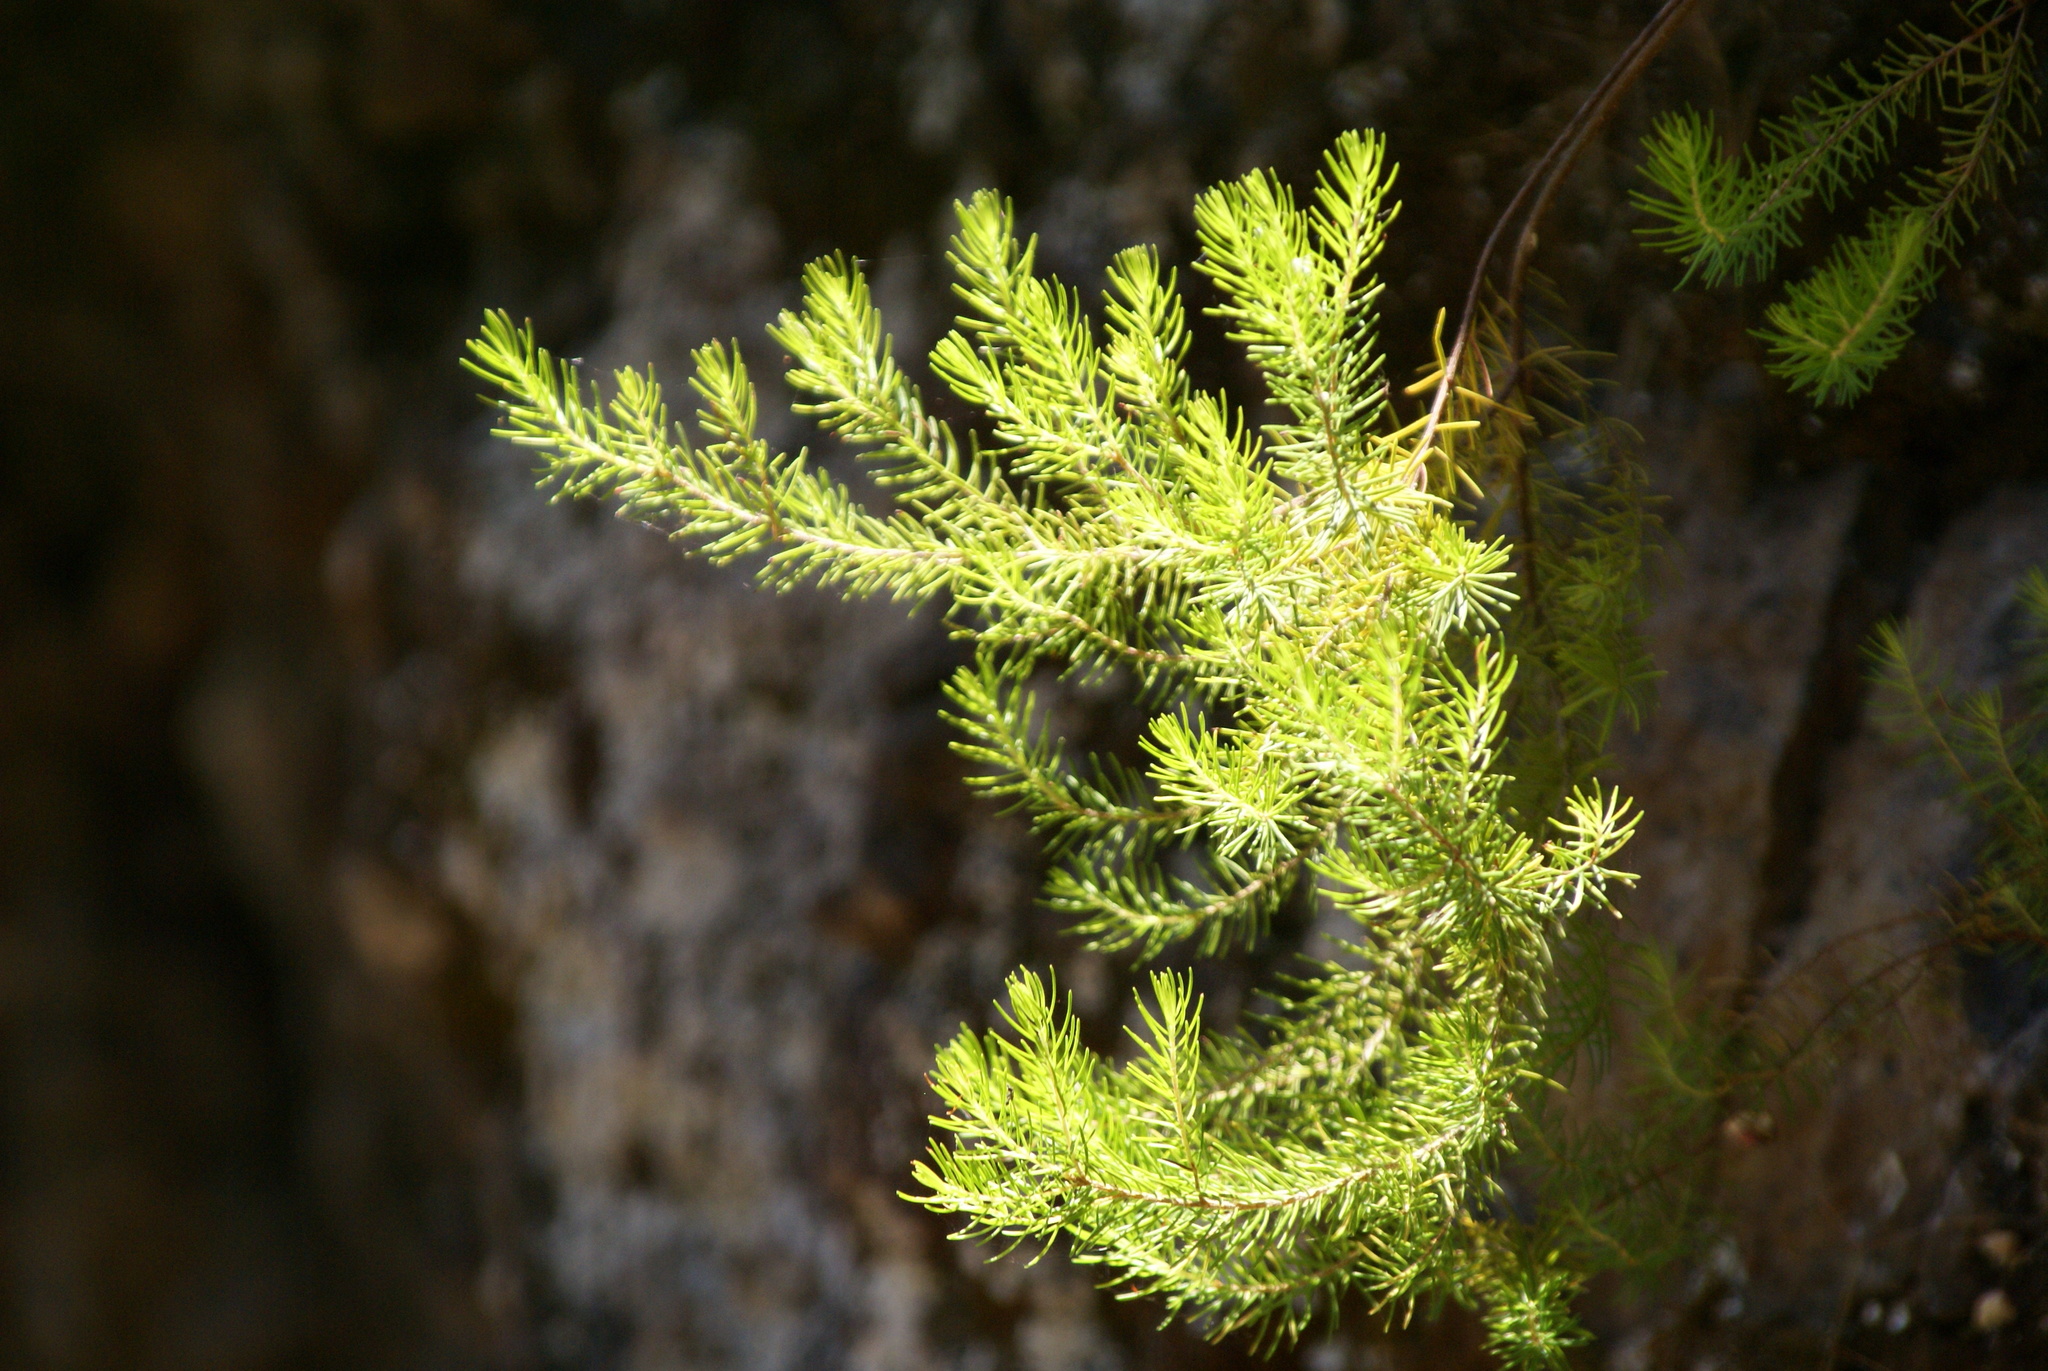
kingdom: Plantae
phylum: Tracheophyta
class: Magnoliopsida
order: Ericales
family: Ericaceae
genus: Erica
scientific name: Erica canariensis
